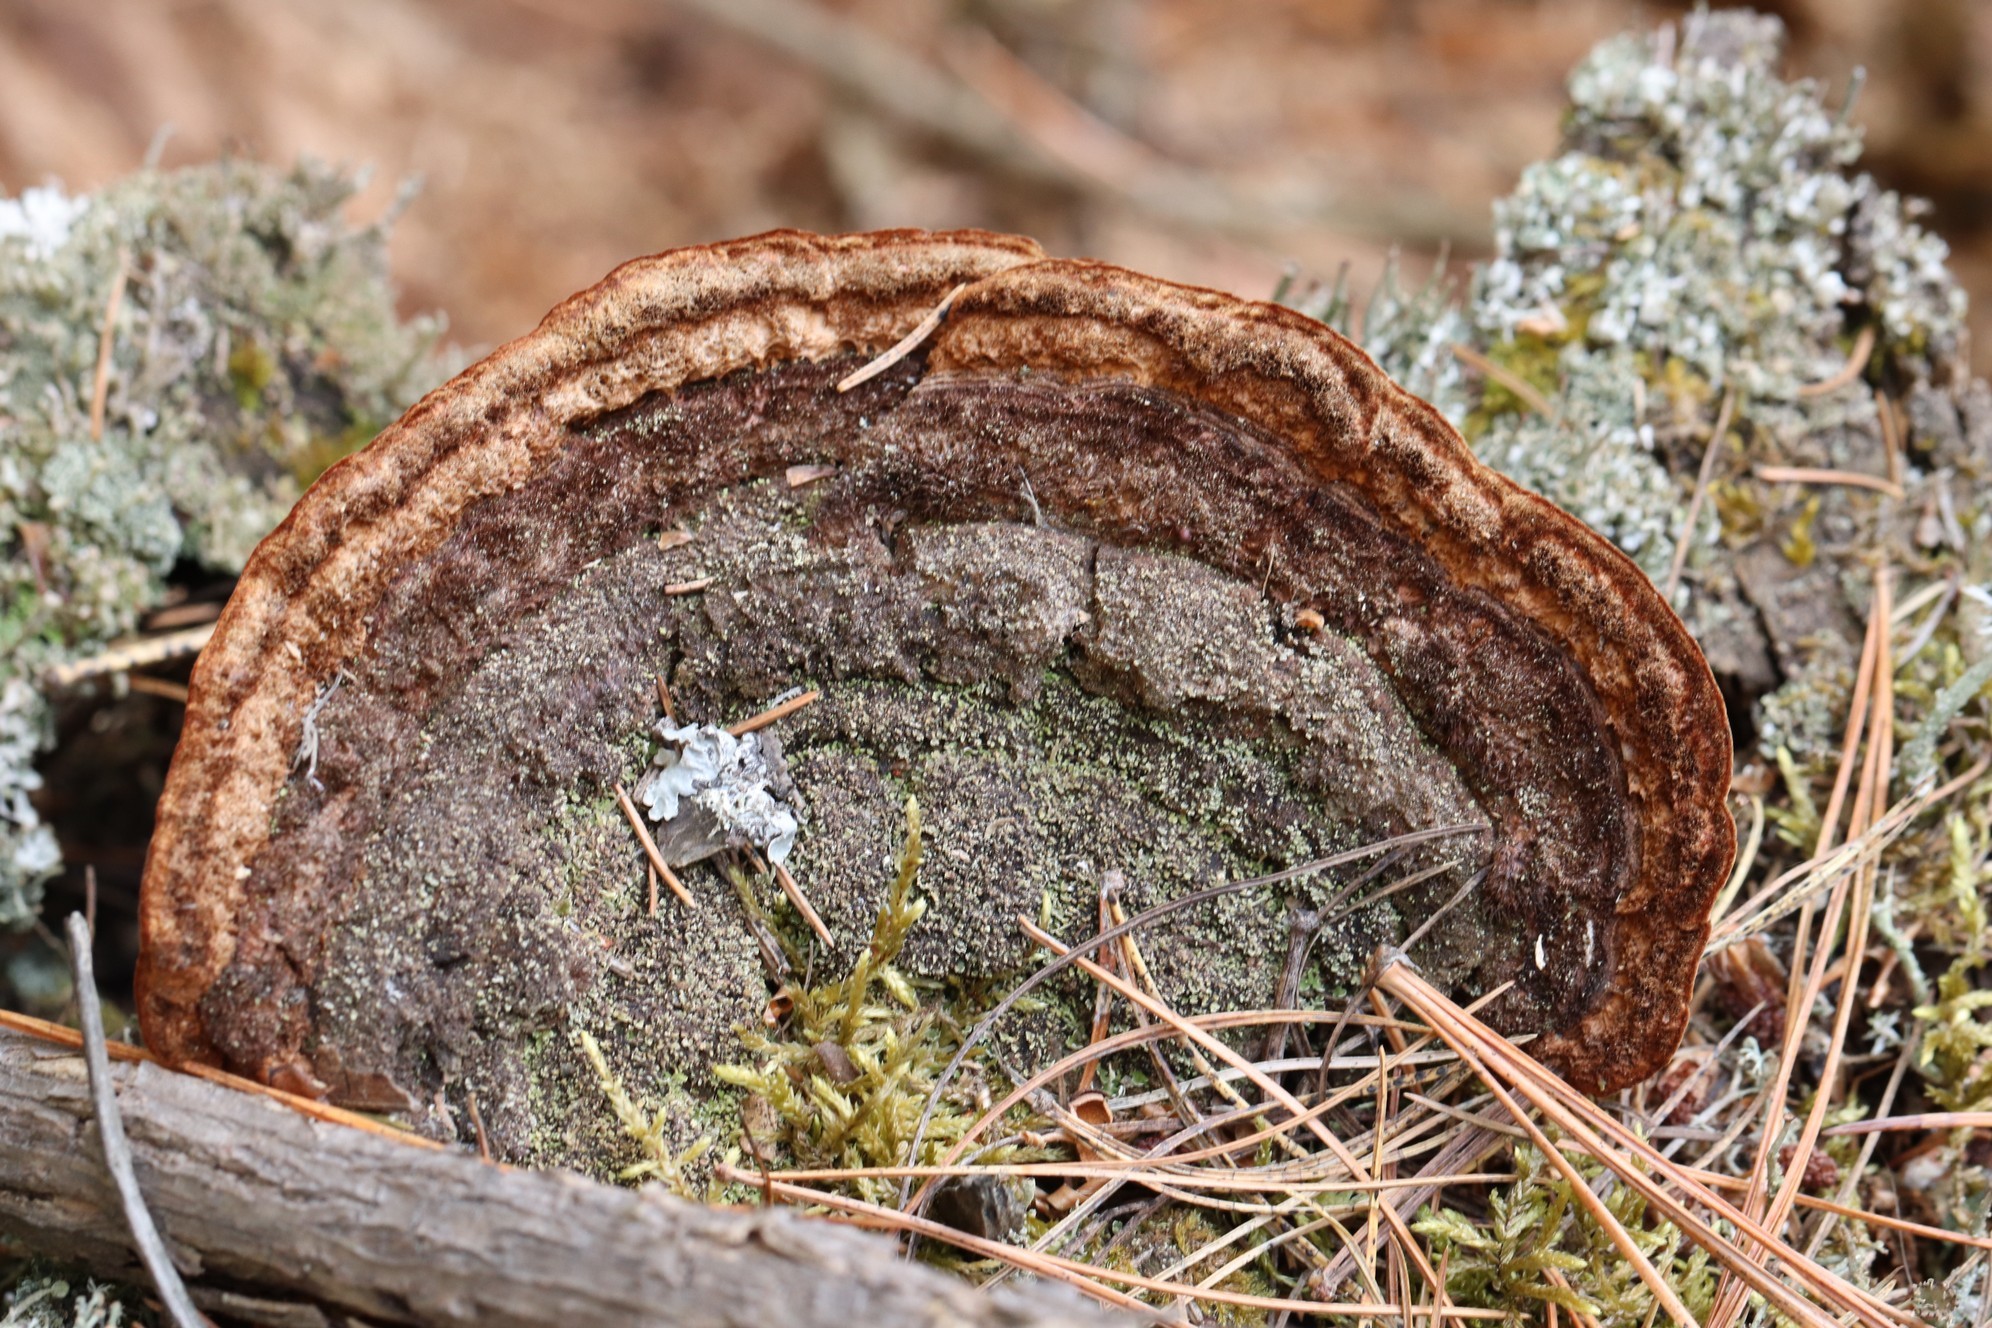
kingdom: Fungi
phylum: Basidiomycota
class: Agaricomycetes
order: Gloeophyllales
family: Gloeophyllaceae
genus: Gloeophyllum
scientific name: Gloeophyllum protractum
